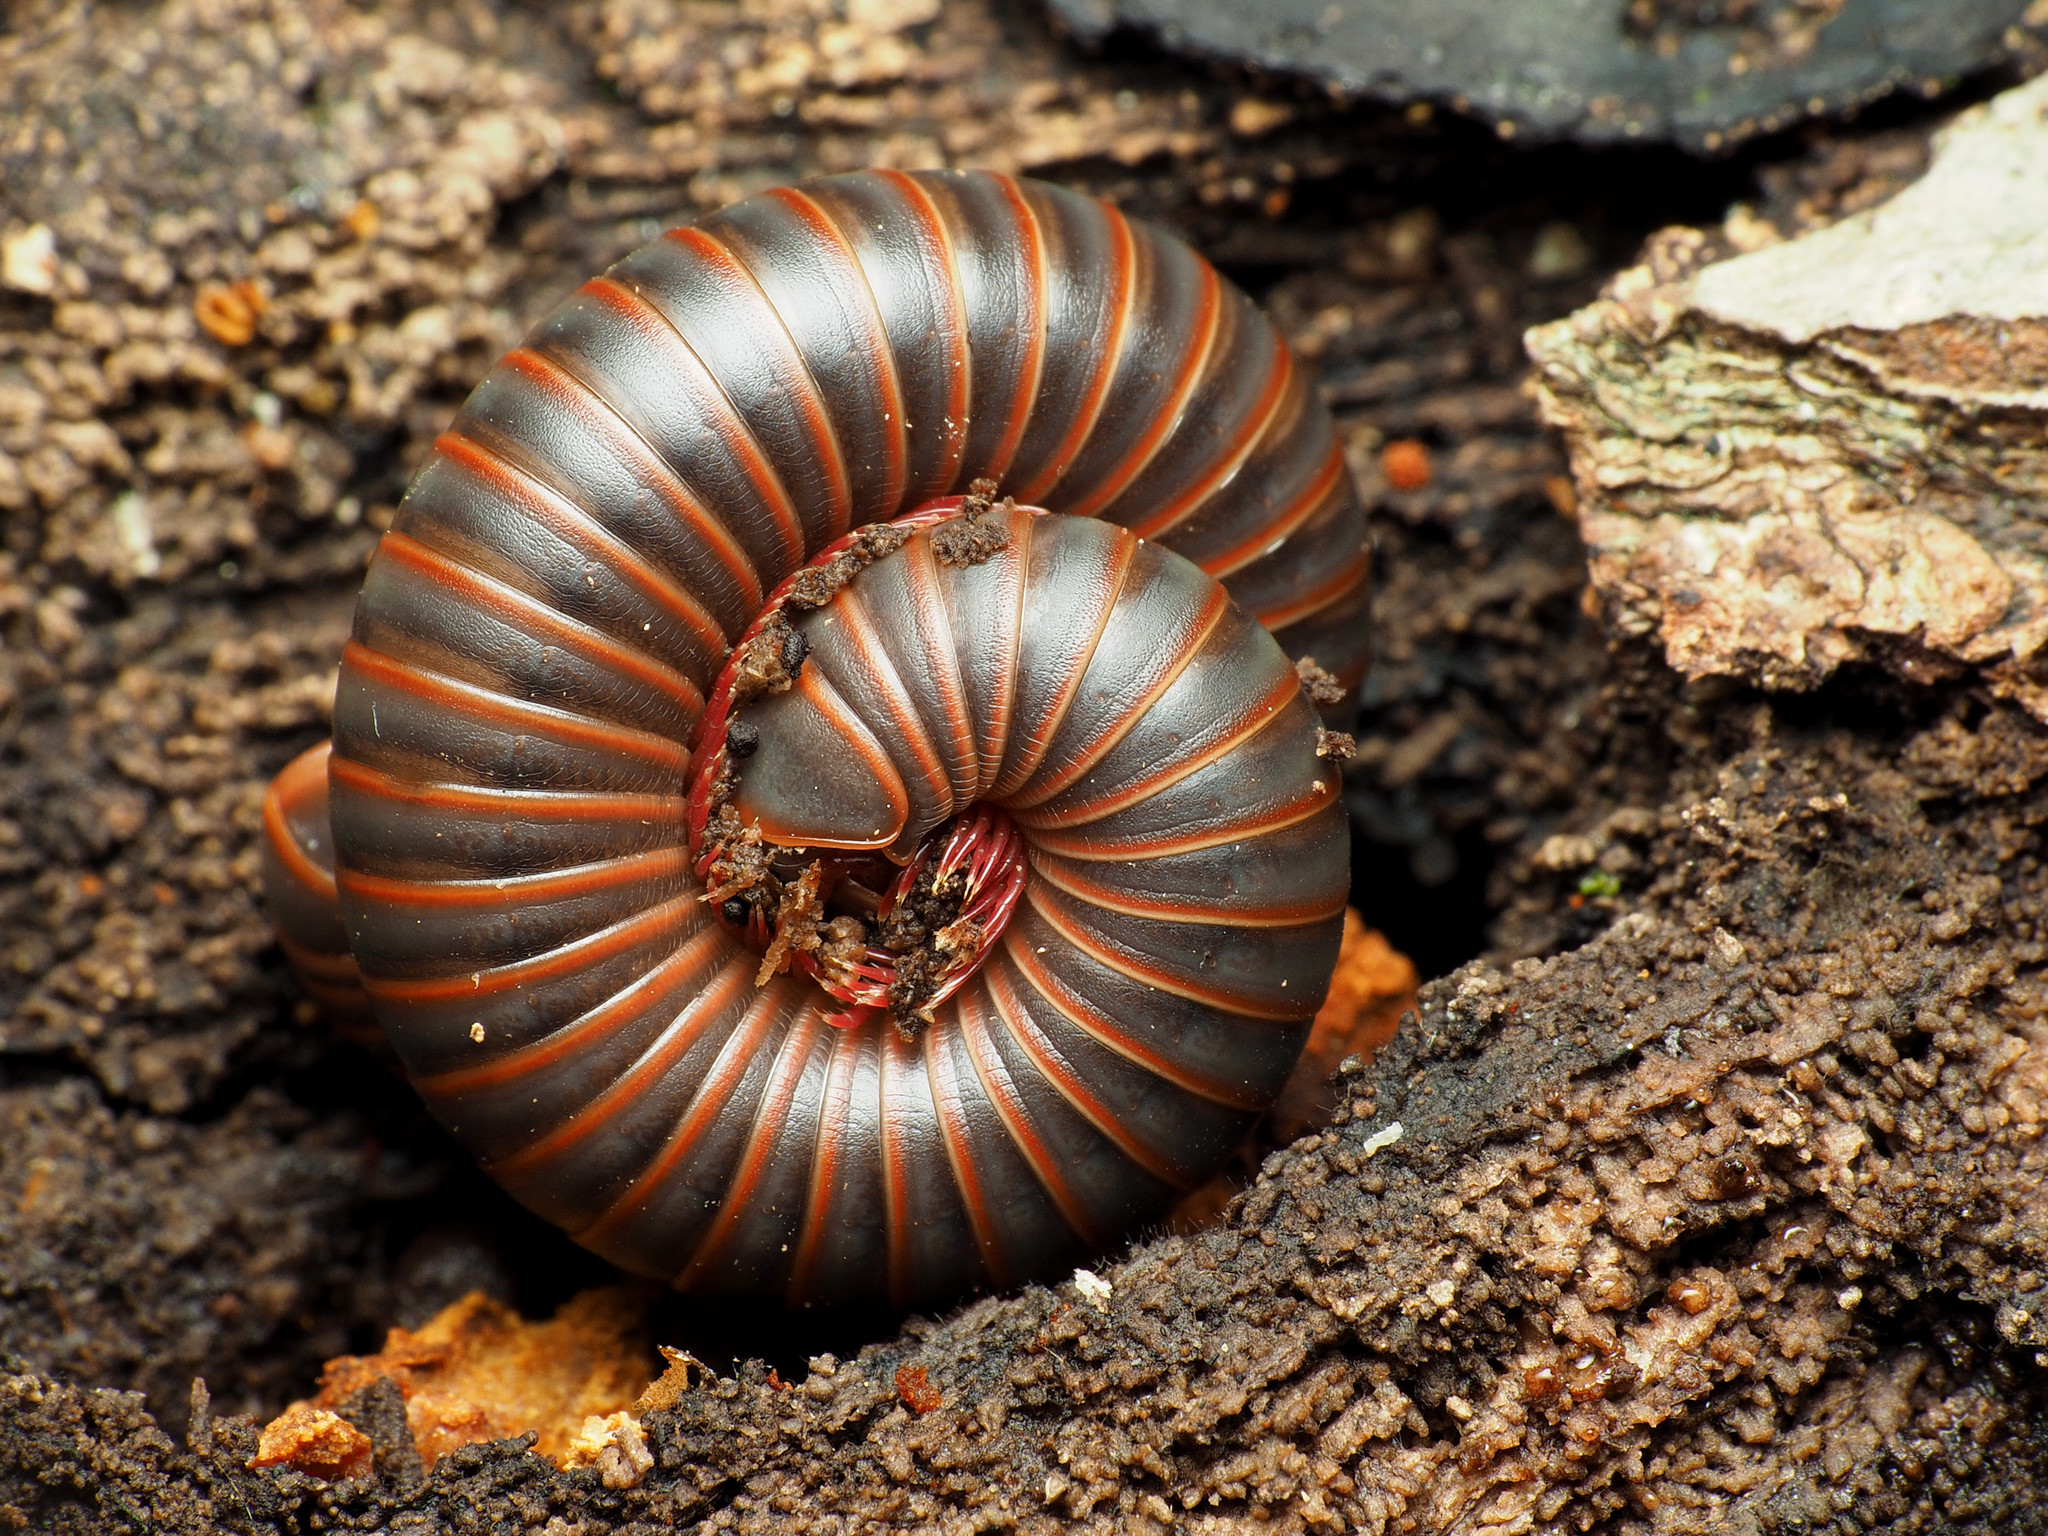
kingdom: Animalia
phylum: Arthropoda
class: Diplopoda
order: Spirobolida
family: Spirobolidae
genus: Narceus
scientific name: Narceus
